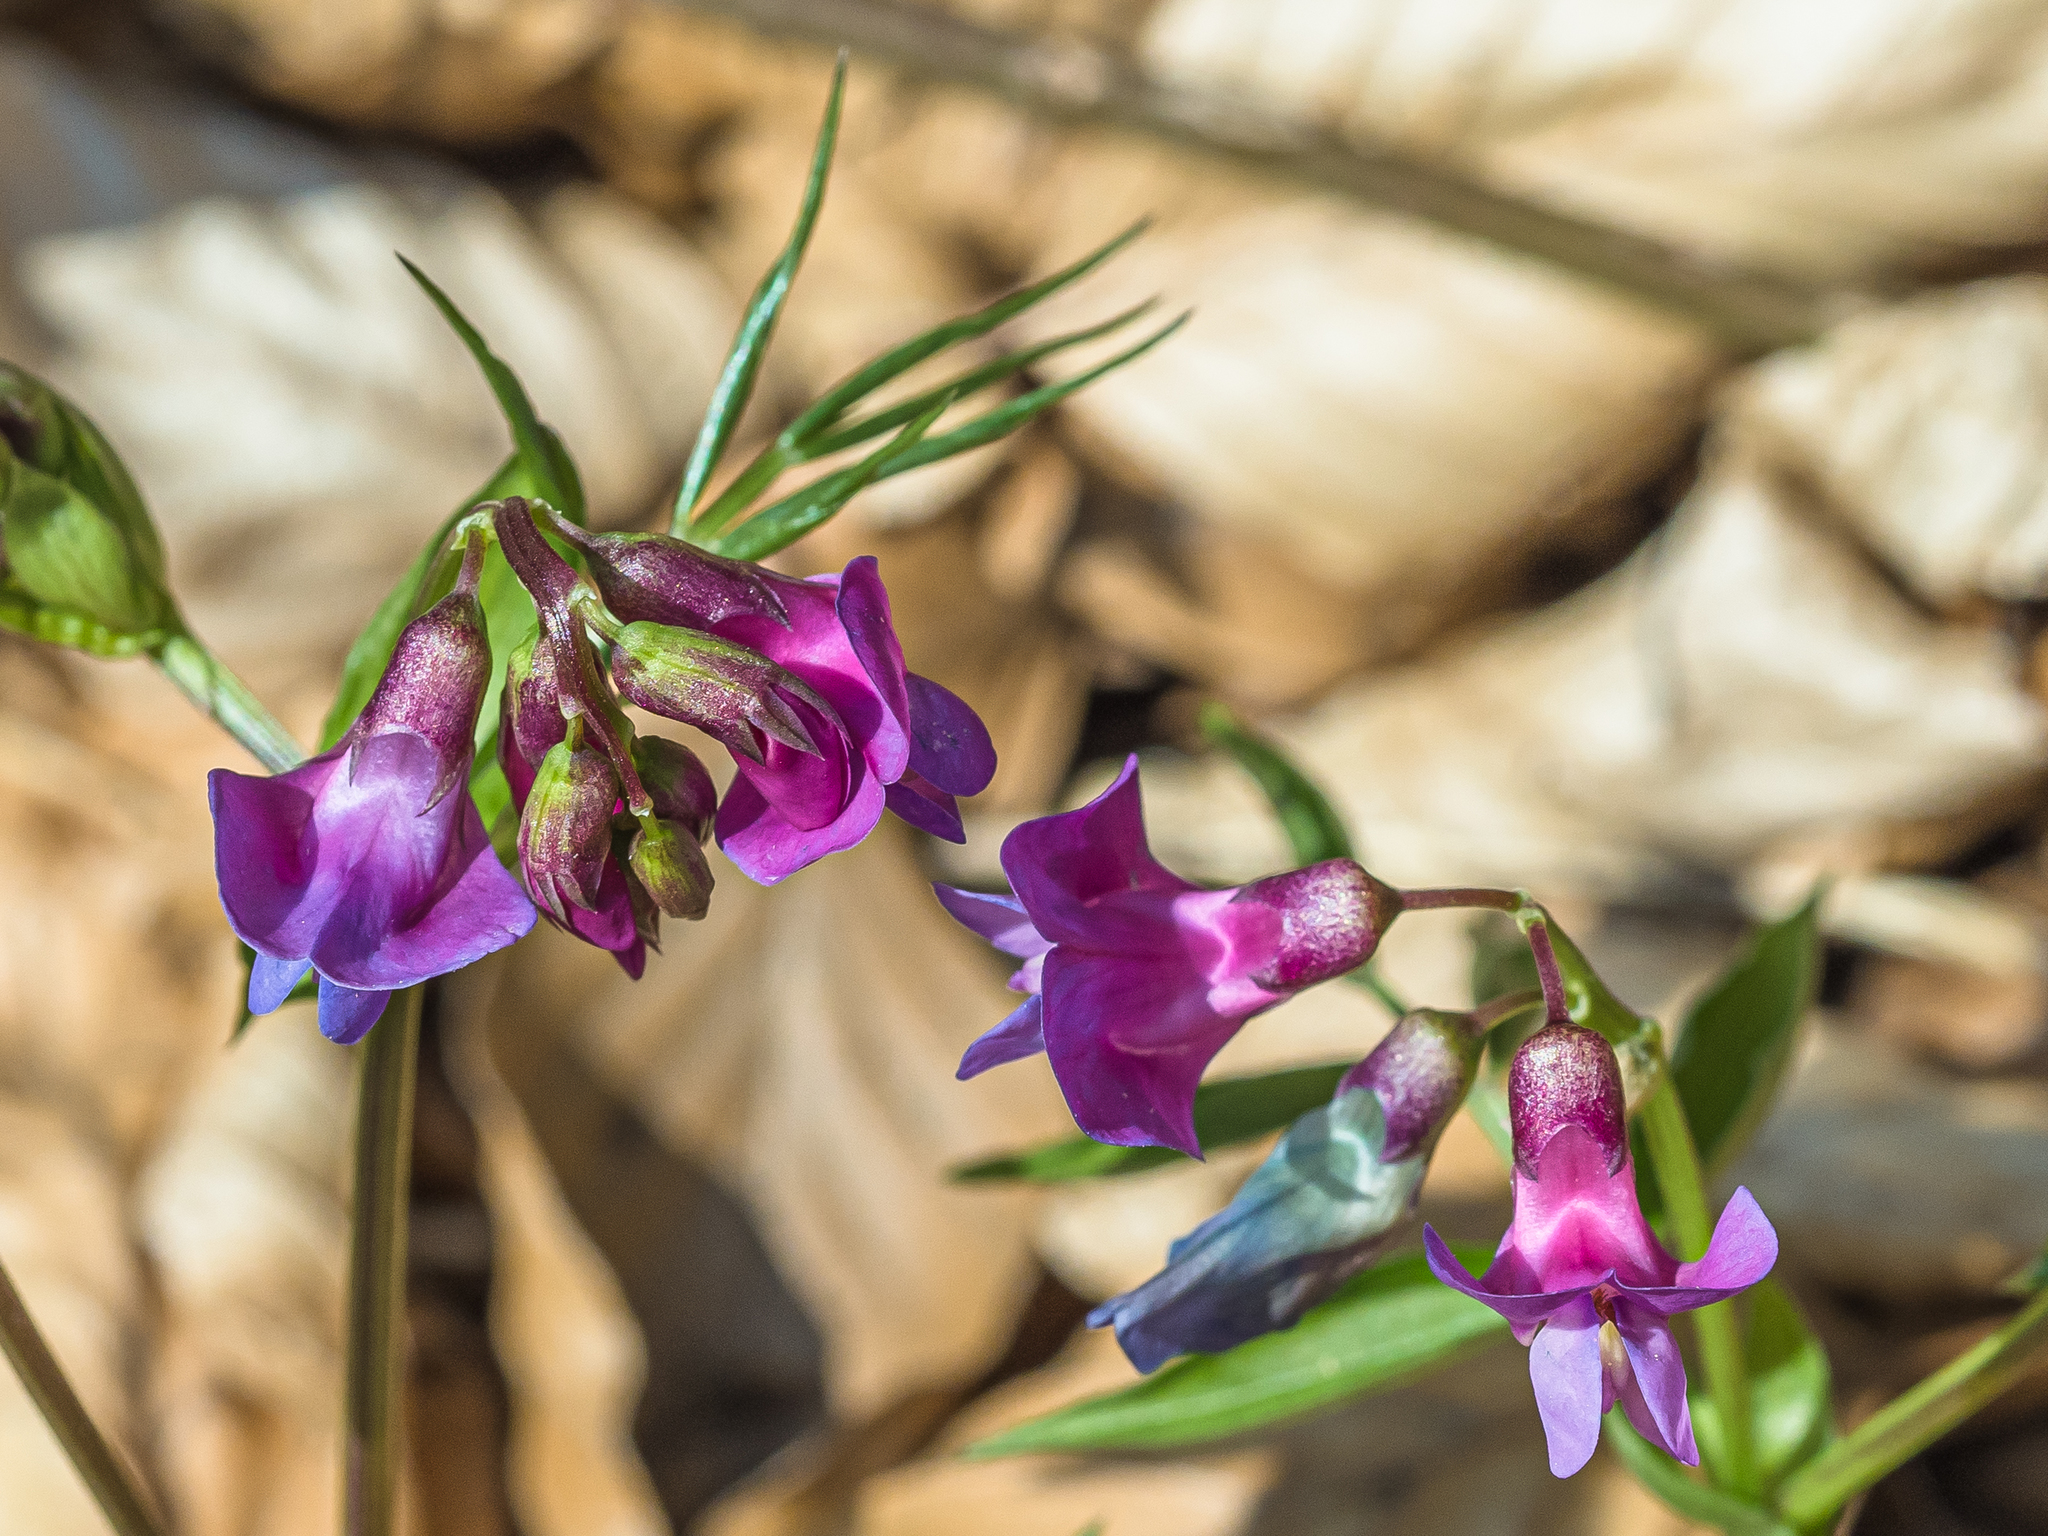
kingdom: Plantae
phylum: Tracheophyta
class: Magnoliopsida
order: Fabales
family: Fabaceae
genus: Lathyrus
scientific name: Lathyrus vernus
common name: Spring pea
